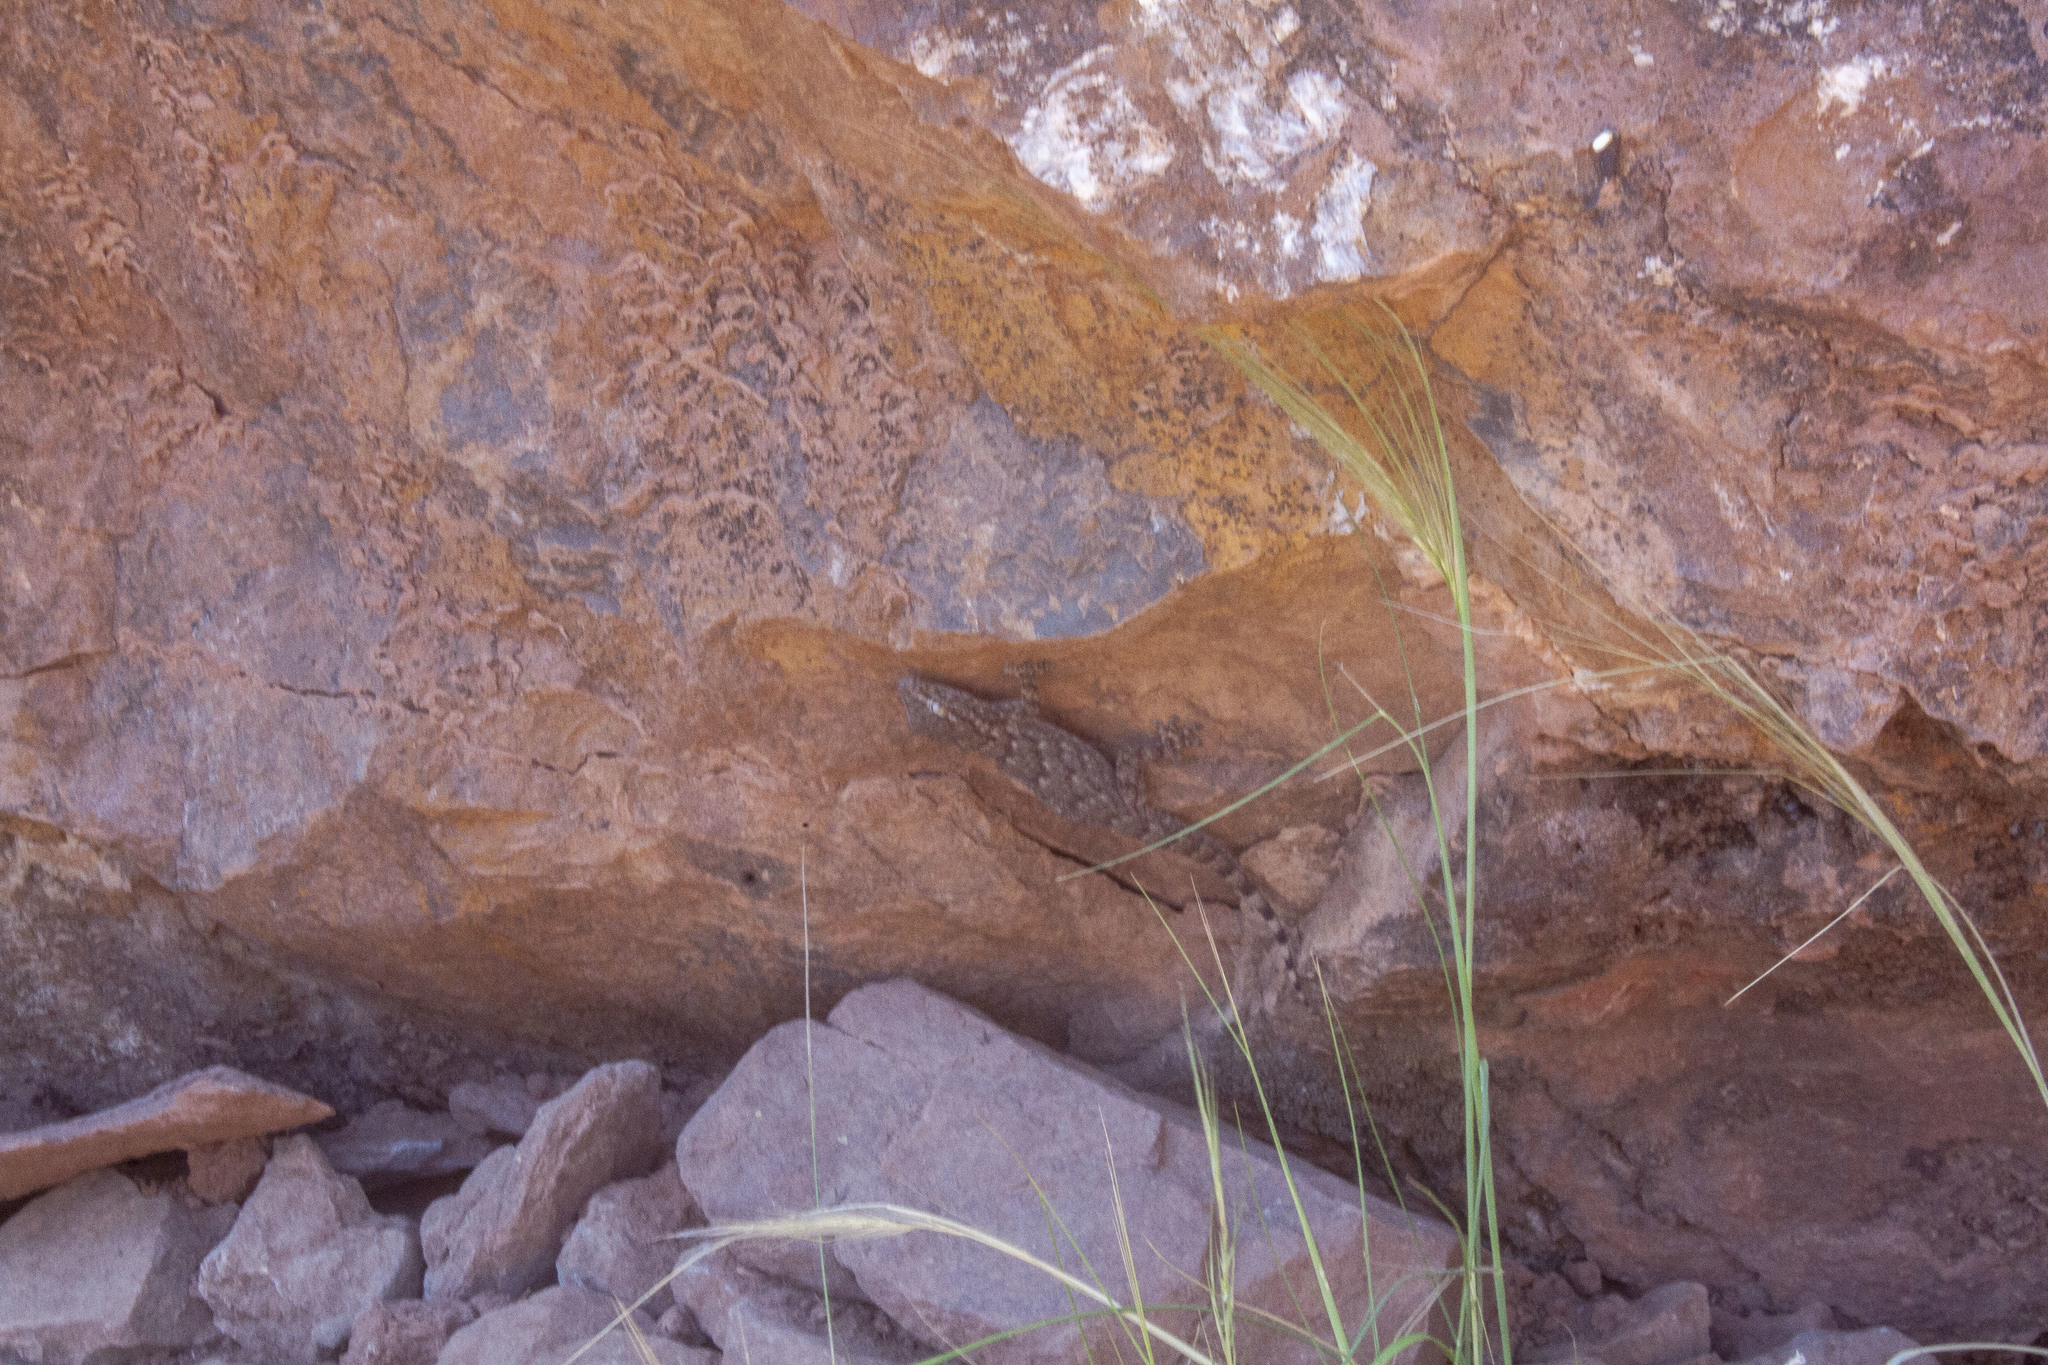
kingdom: Animalia
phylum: Chordata
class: Squamata
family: Phyllodactylidae
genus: Tarentola
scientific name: Tarentola mauritanica
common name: Moorish gecko
